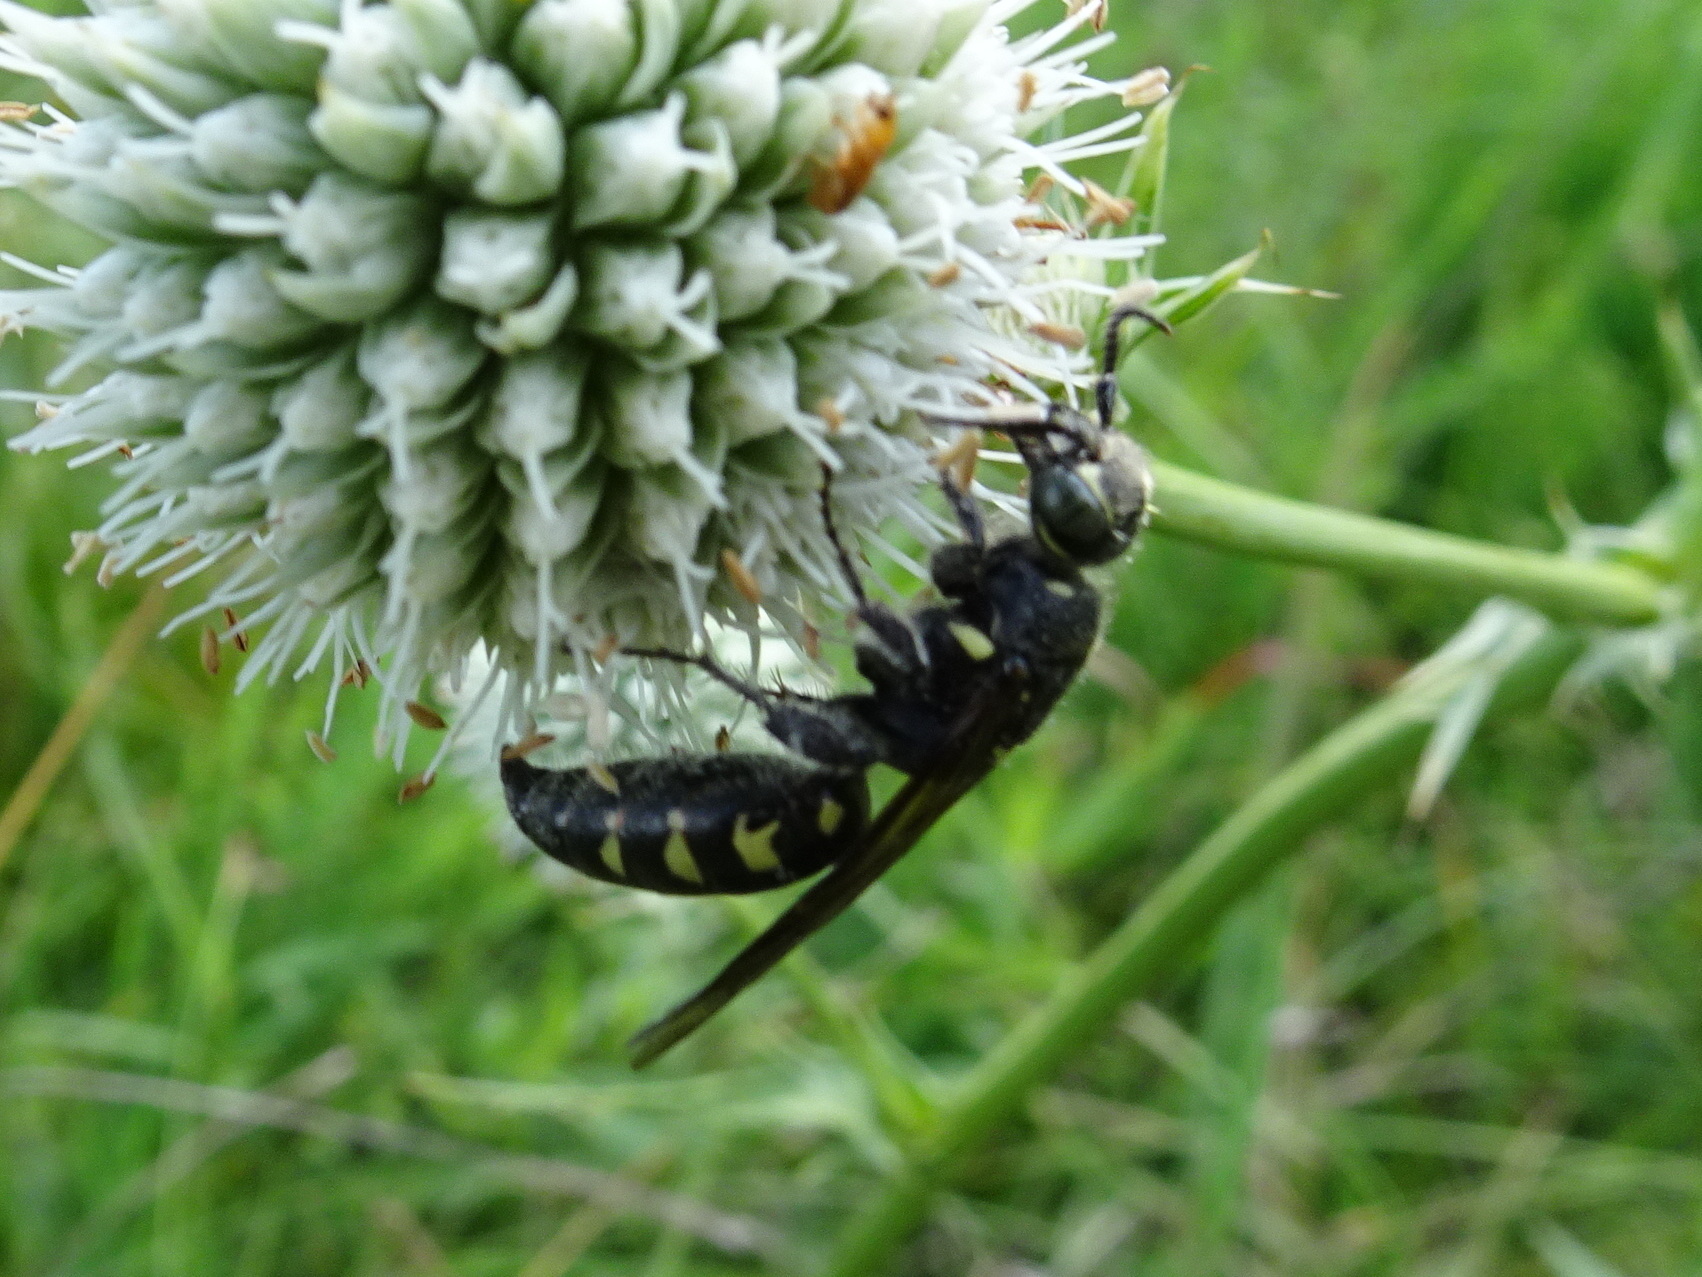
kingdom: Animalia
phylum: Arthropoda
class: Insecta
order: Hymenoptera
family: Tiphiidae
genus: Myzinum
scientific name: Myzinum obscurum
